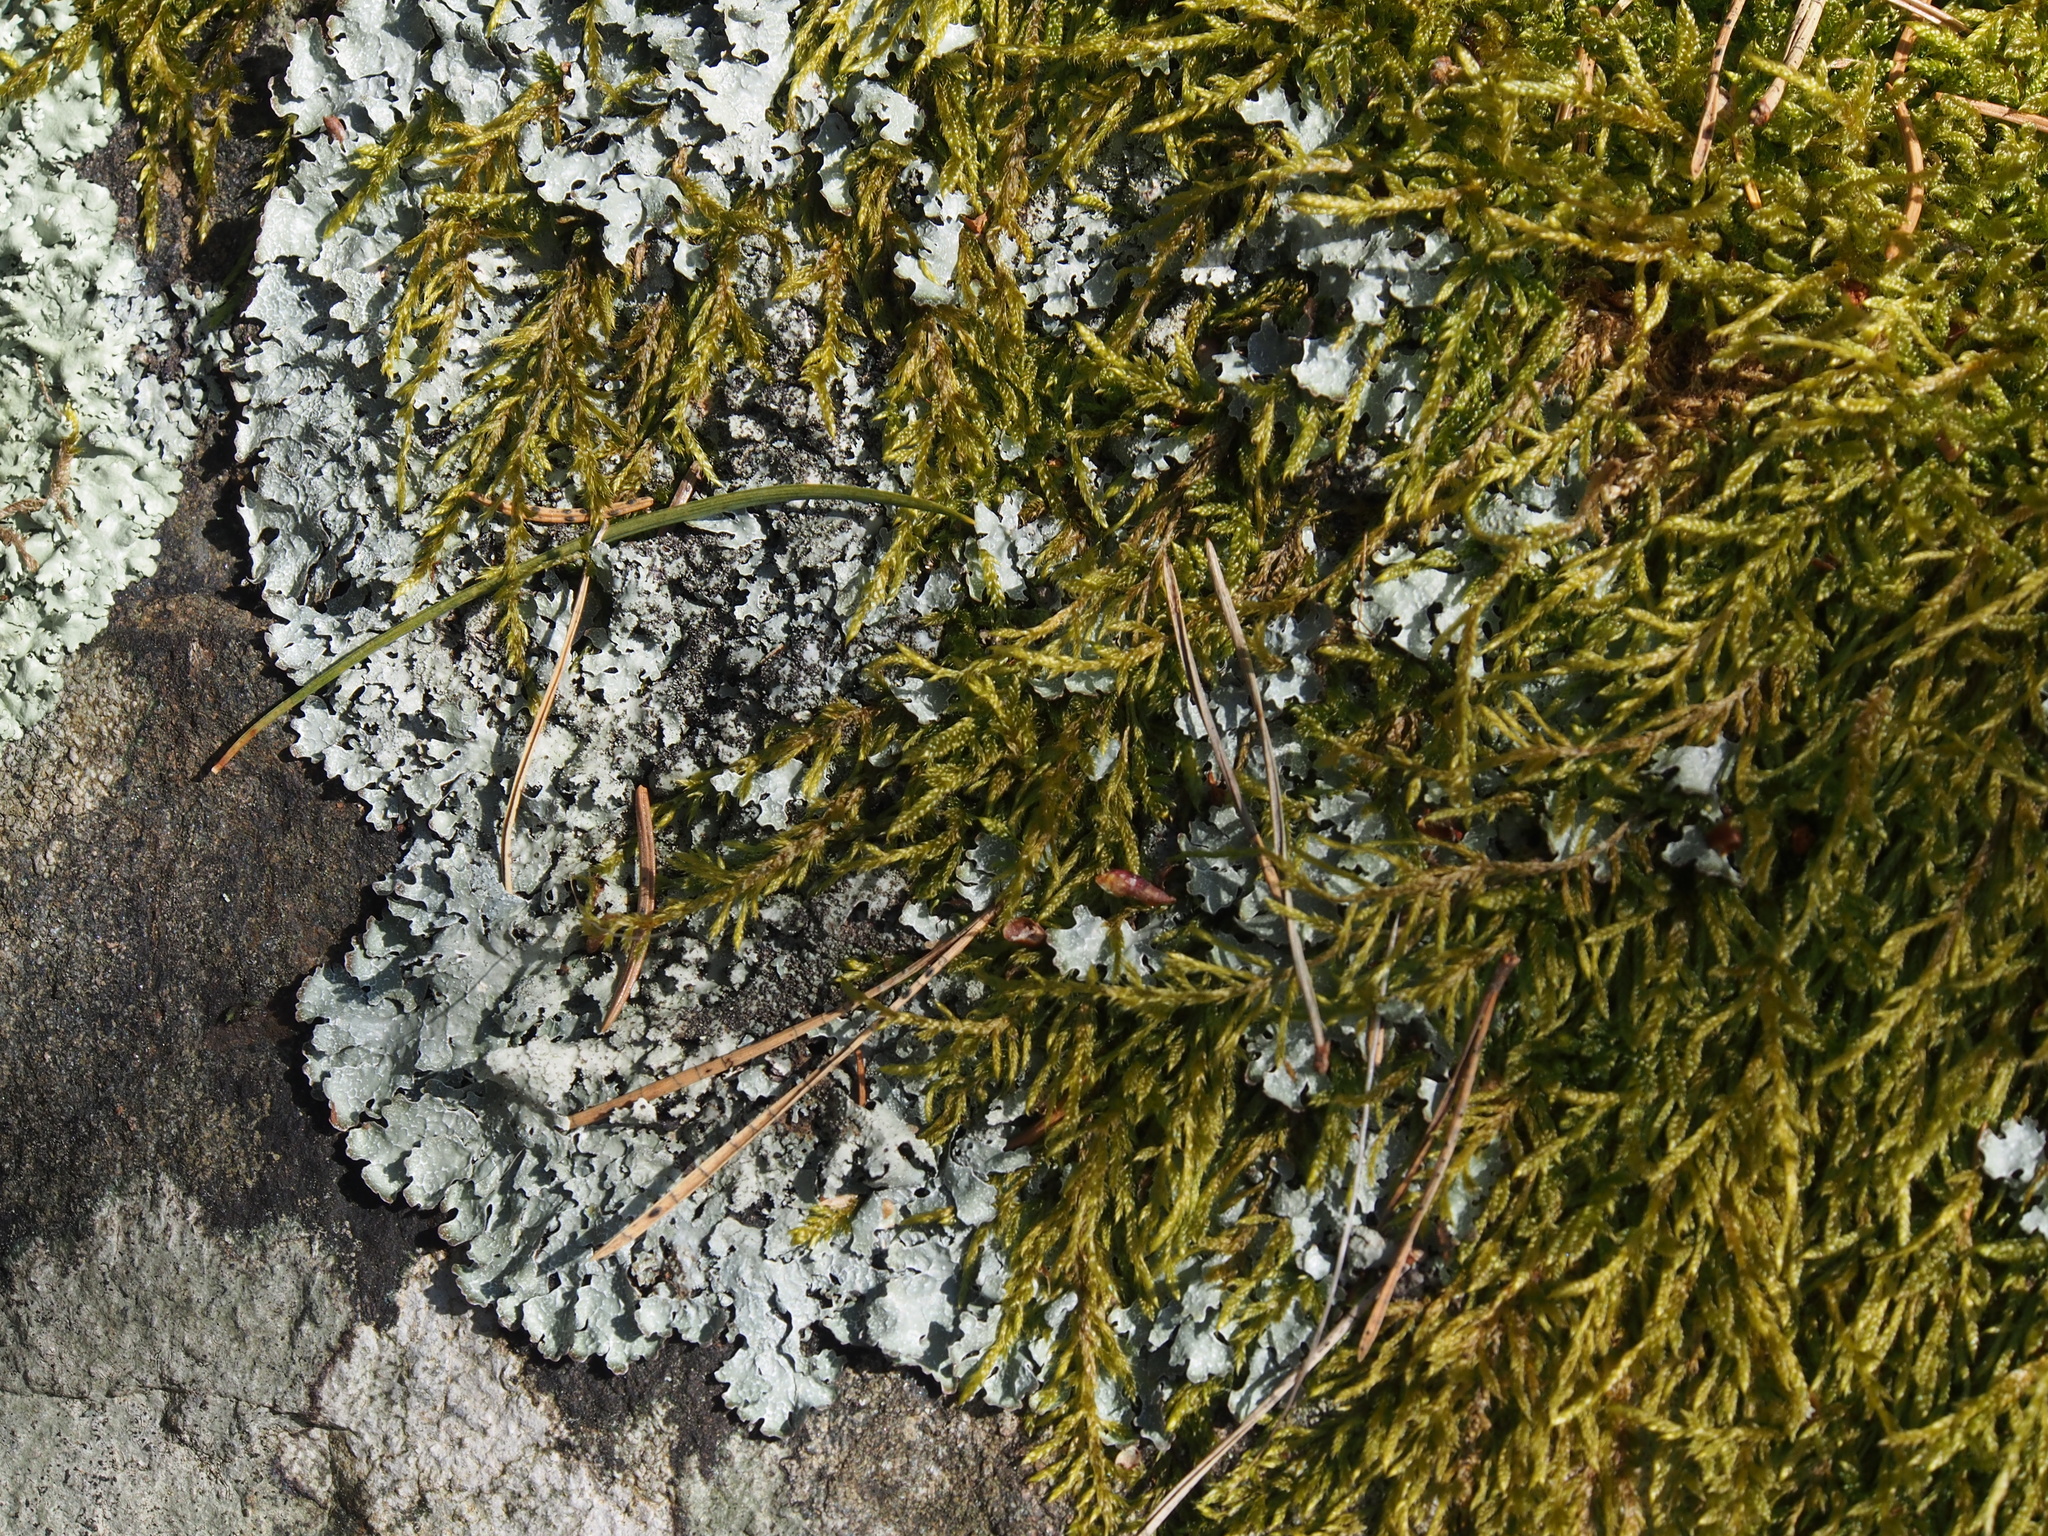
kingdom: Fungi
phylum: Ascomycota
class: Lecanoromycetes
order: Lecanorales
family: Parmeliaceae
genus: Parmelia
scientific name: Parmelia saxatilis
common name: Salted shield lichen
